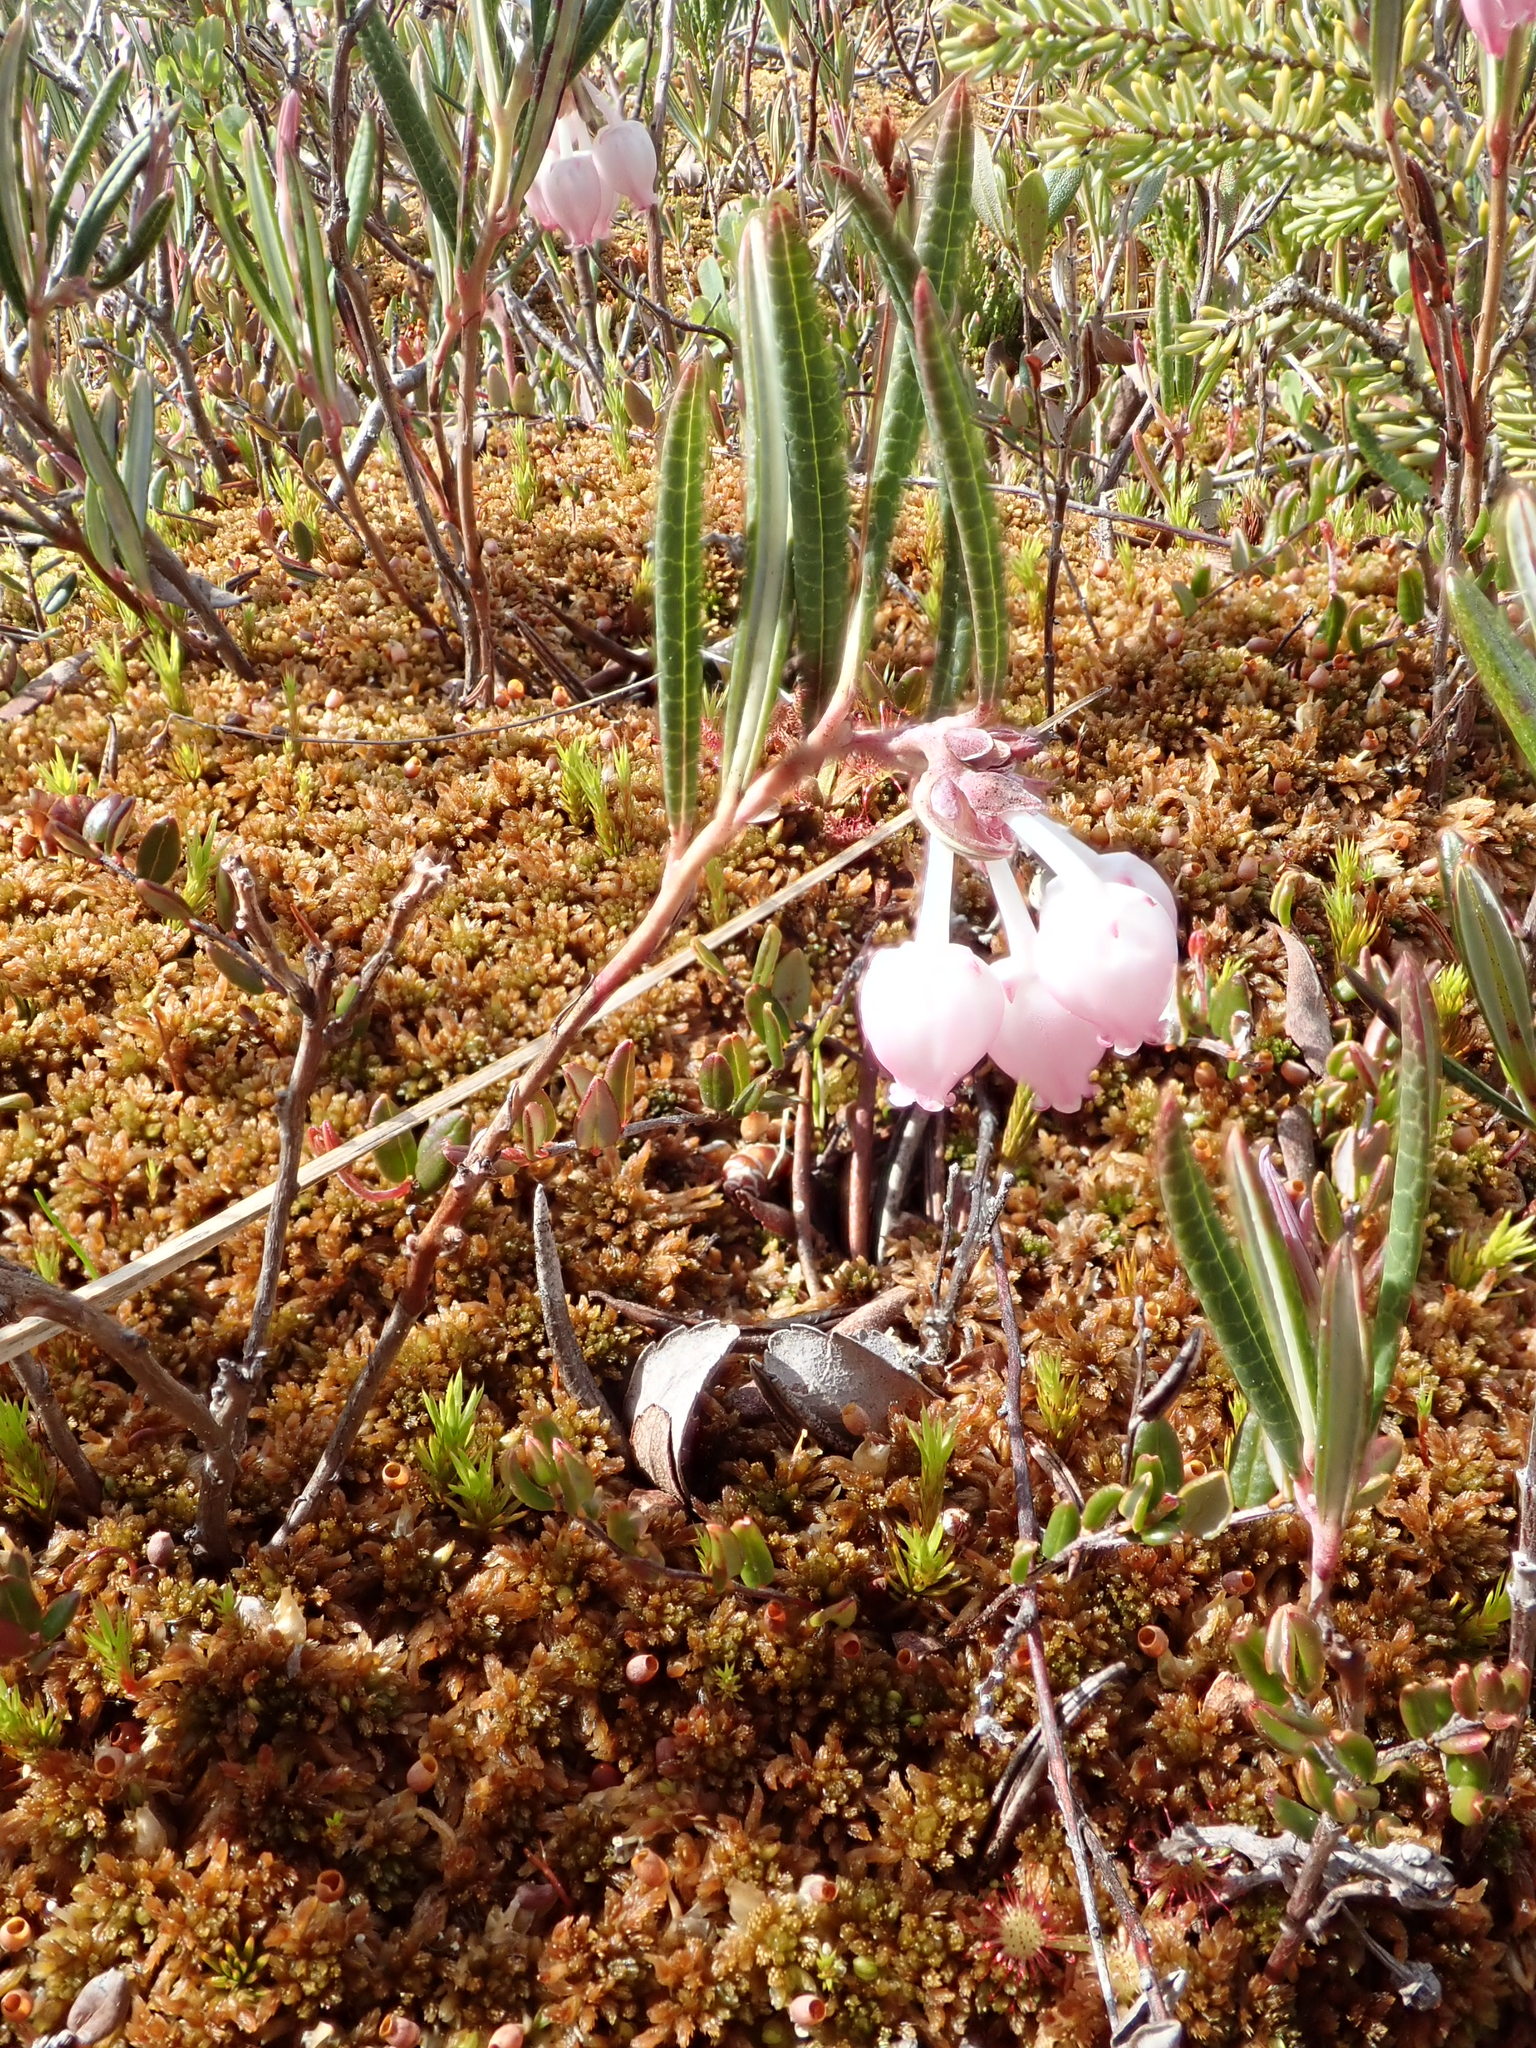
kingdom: Plantae
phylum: Tracheophyta
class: Magnoliopsida
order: Ericales
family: Ericaceae
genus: Andromeda
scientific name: Andromeda polifolia
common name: Bog-rosemary
